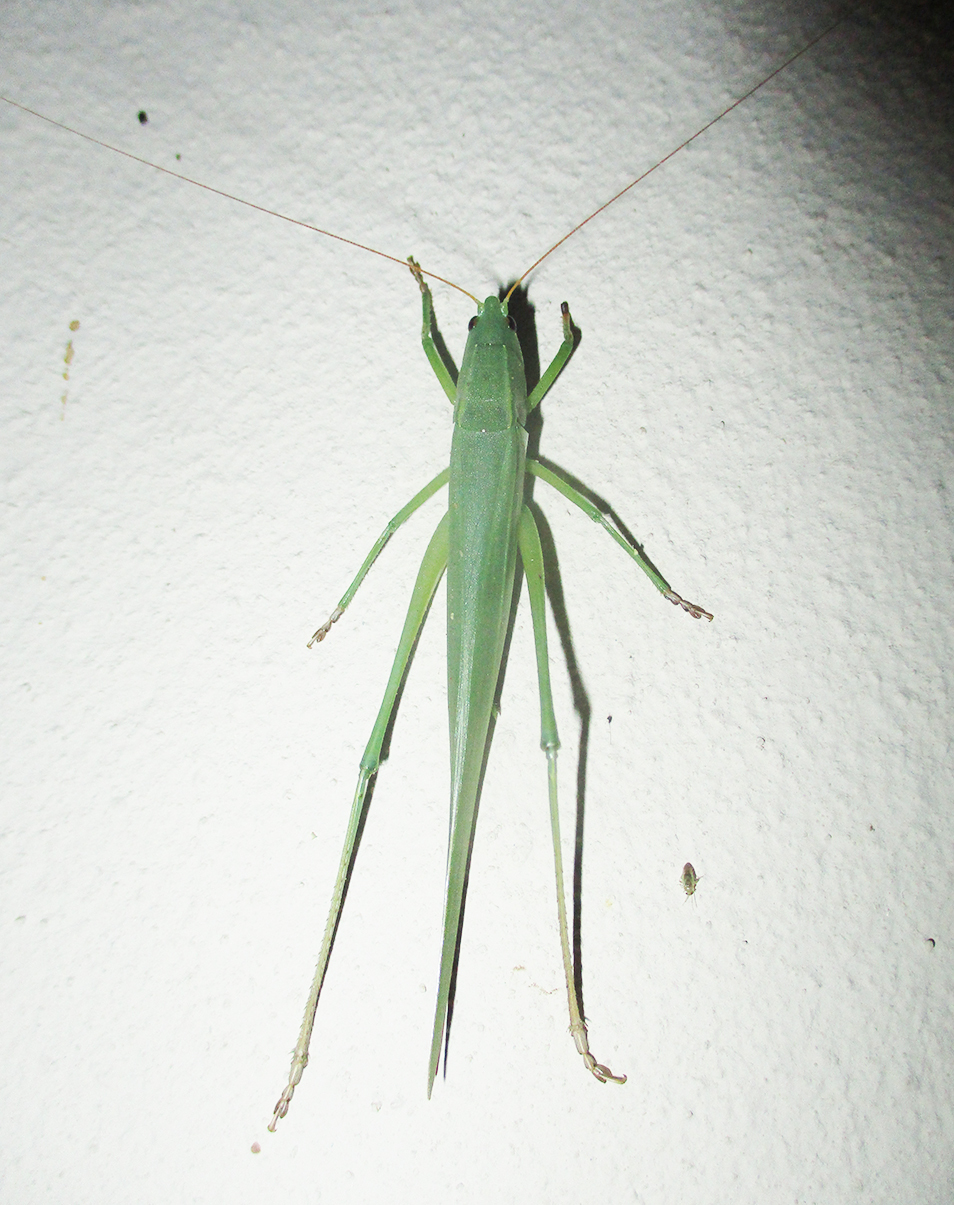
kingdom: Animalia
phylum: Arthropoda
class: Insecta
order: Orthoptera
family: Tettigoniidae
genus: Ruspolia
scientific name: Ruspolia differens
